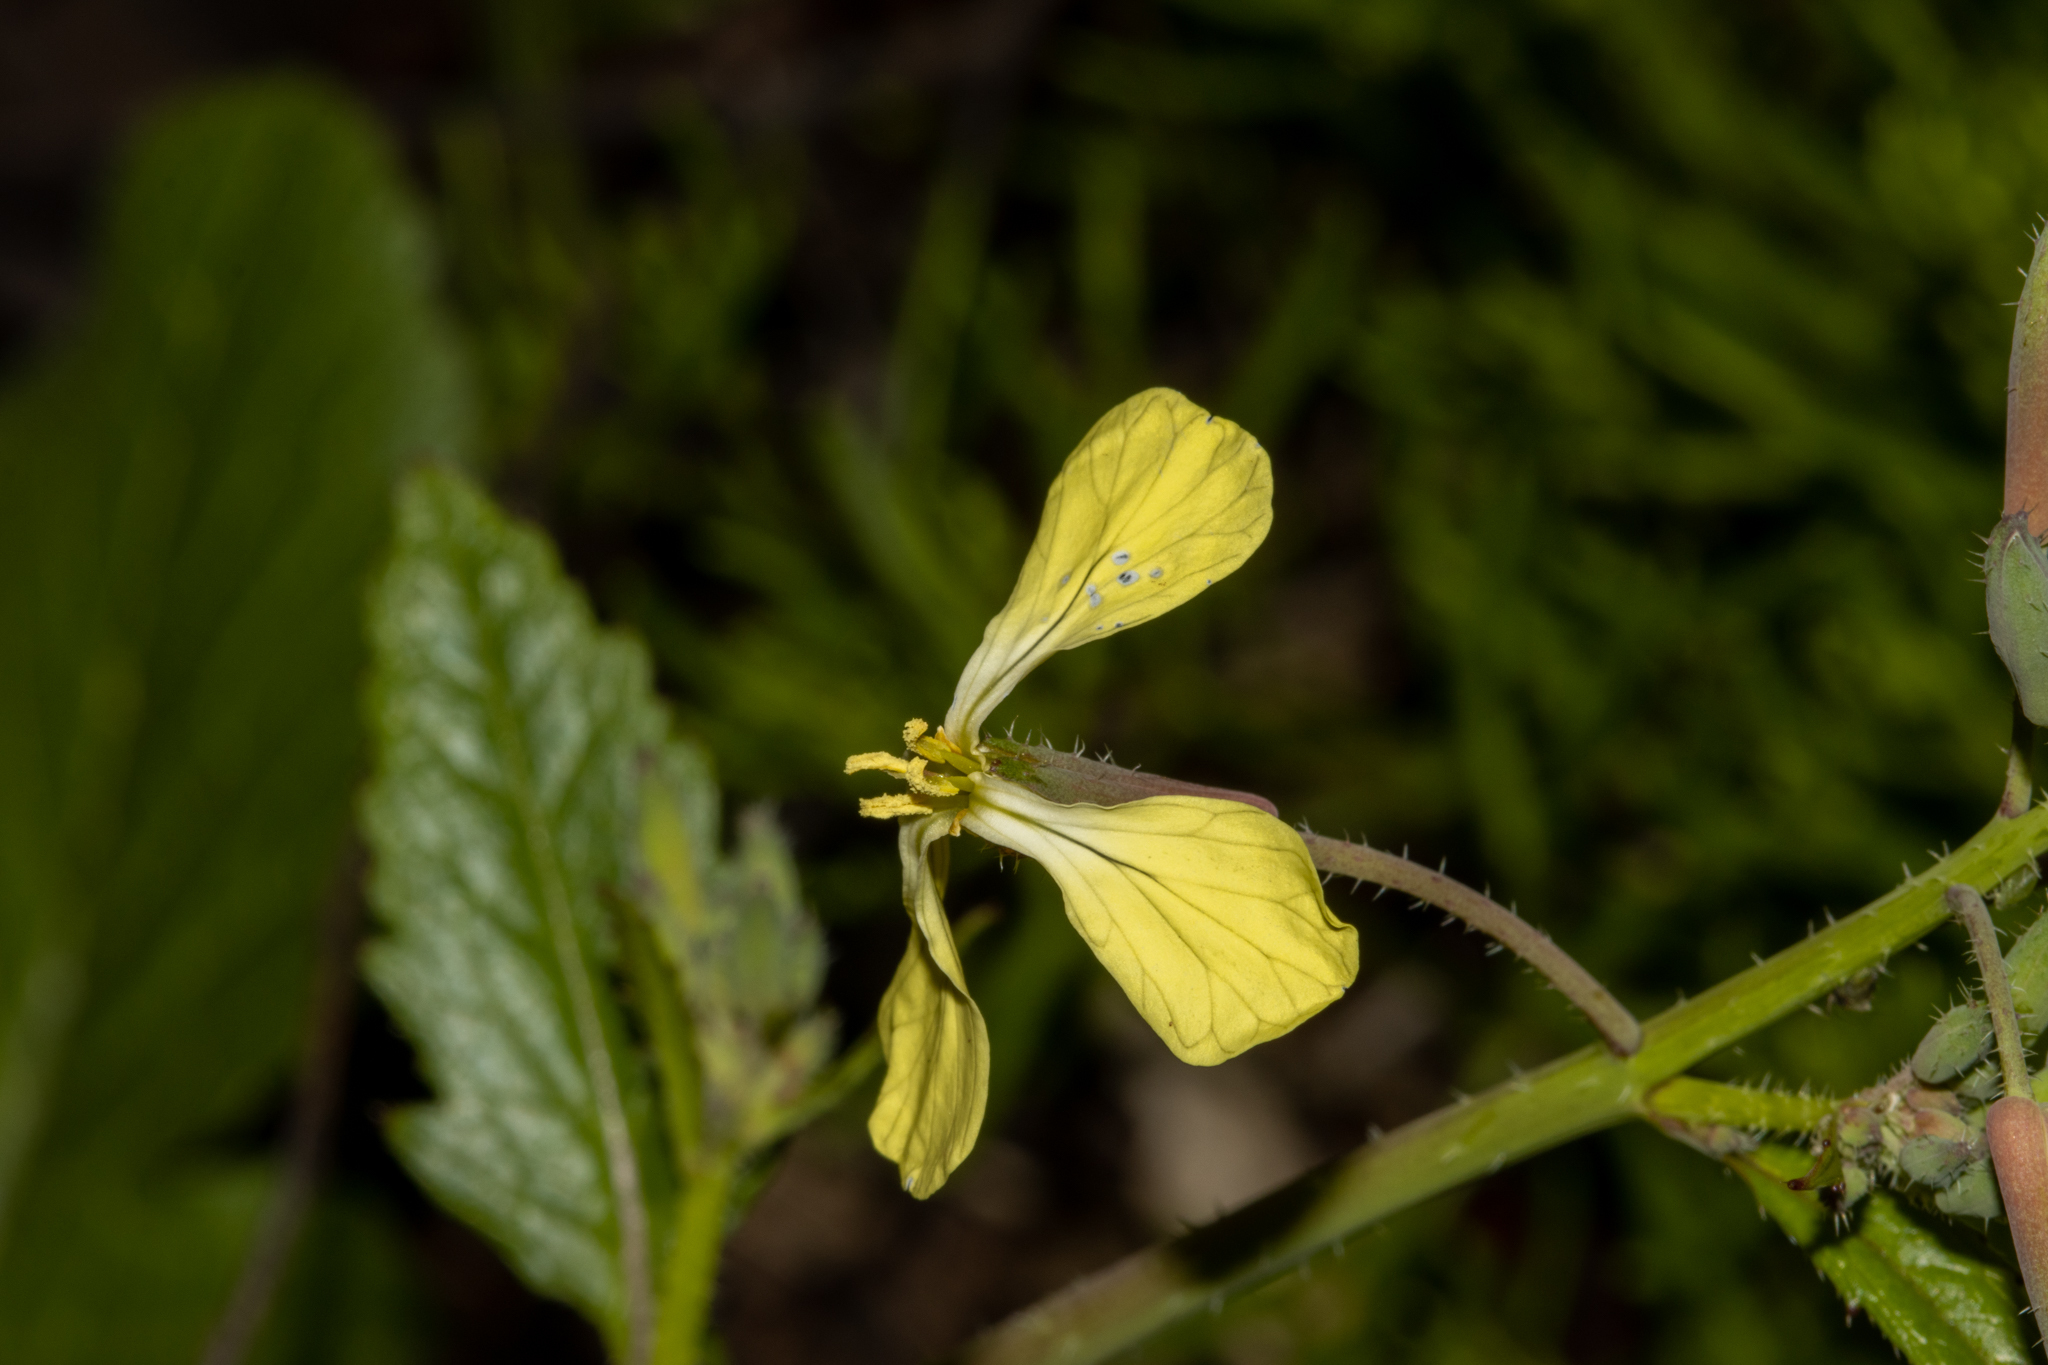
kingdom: Plantae
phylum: Tracheophyta
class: Magnoliopsida
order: Brassicales
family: Brassicaceae
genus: Raphanus
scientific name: Raphanus raphanistrum
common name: Wild radish
